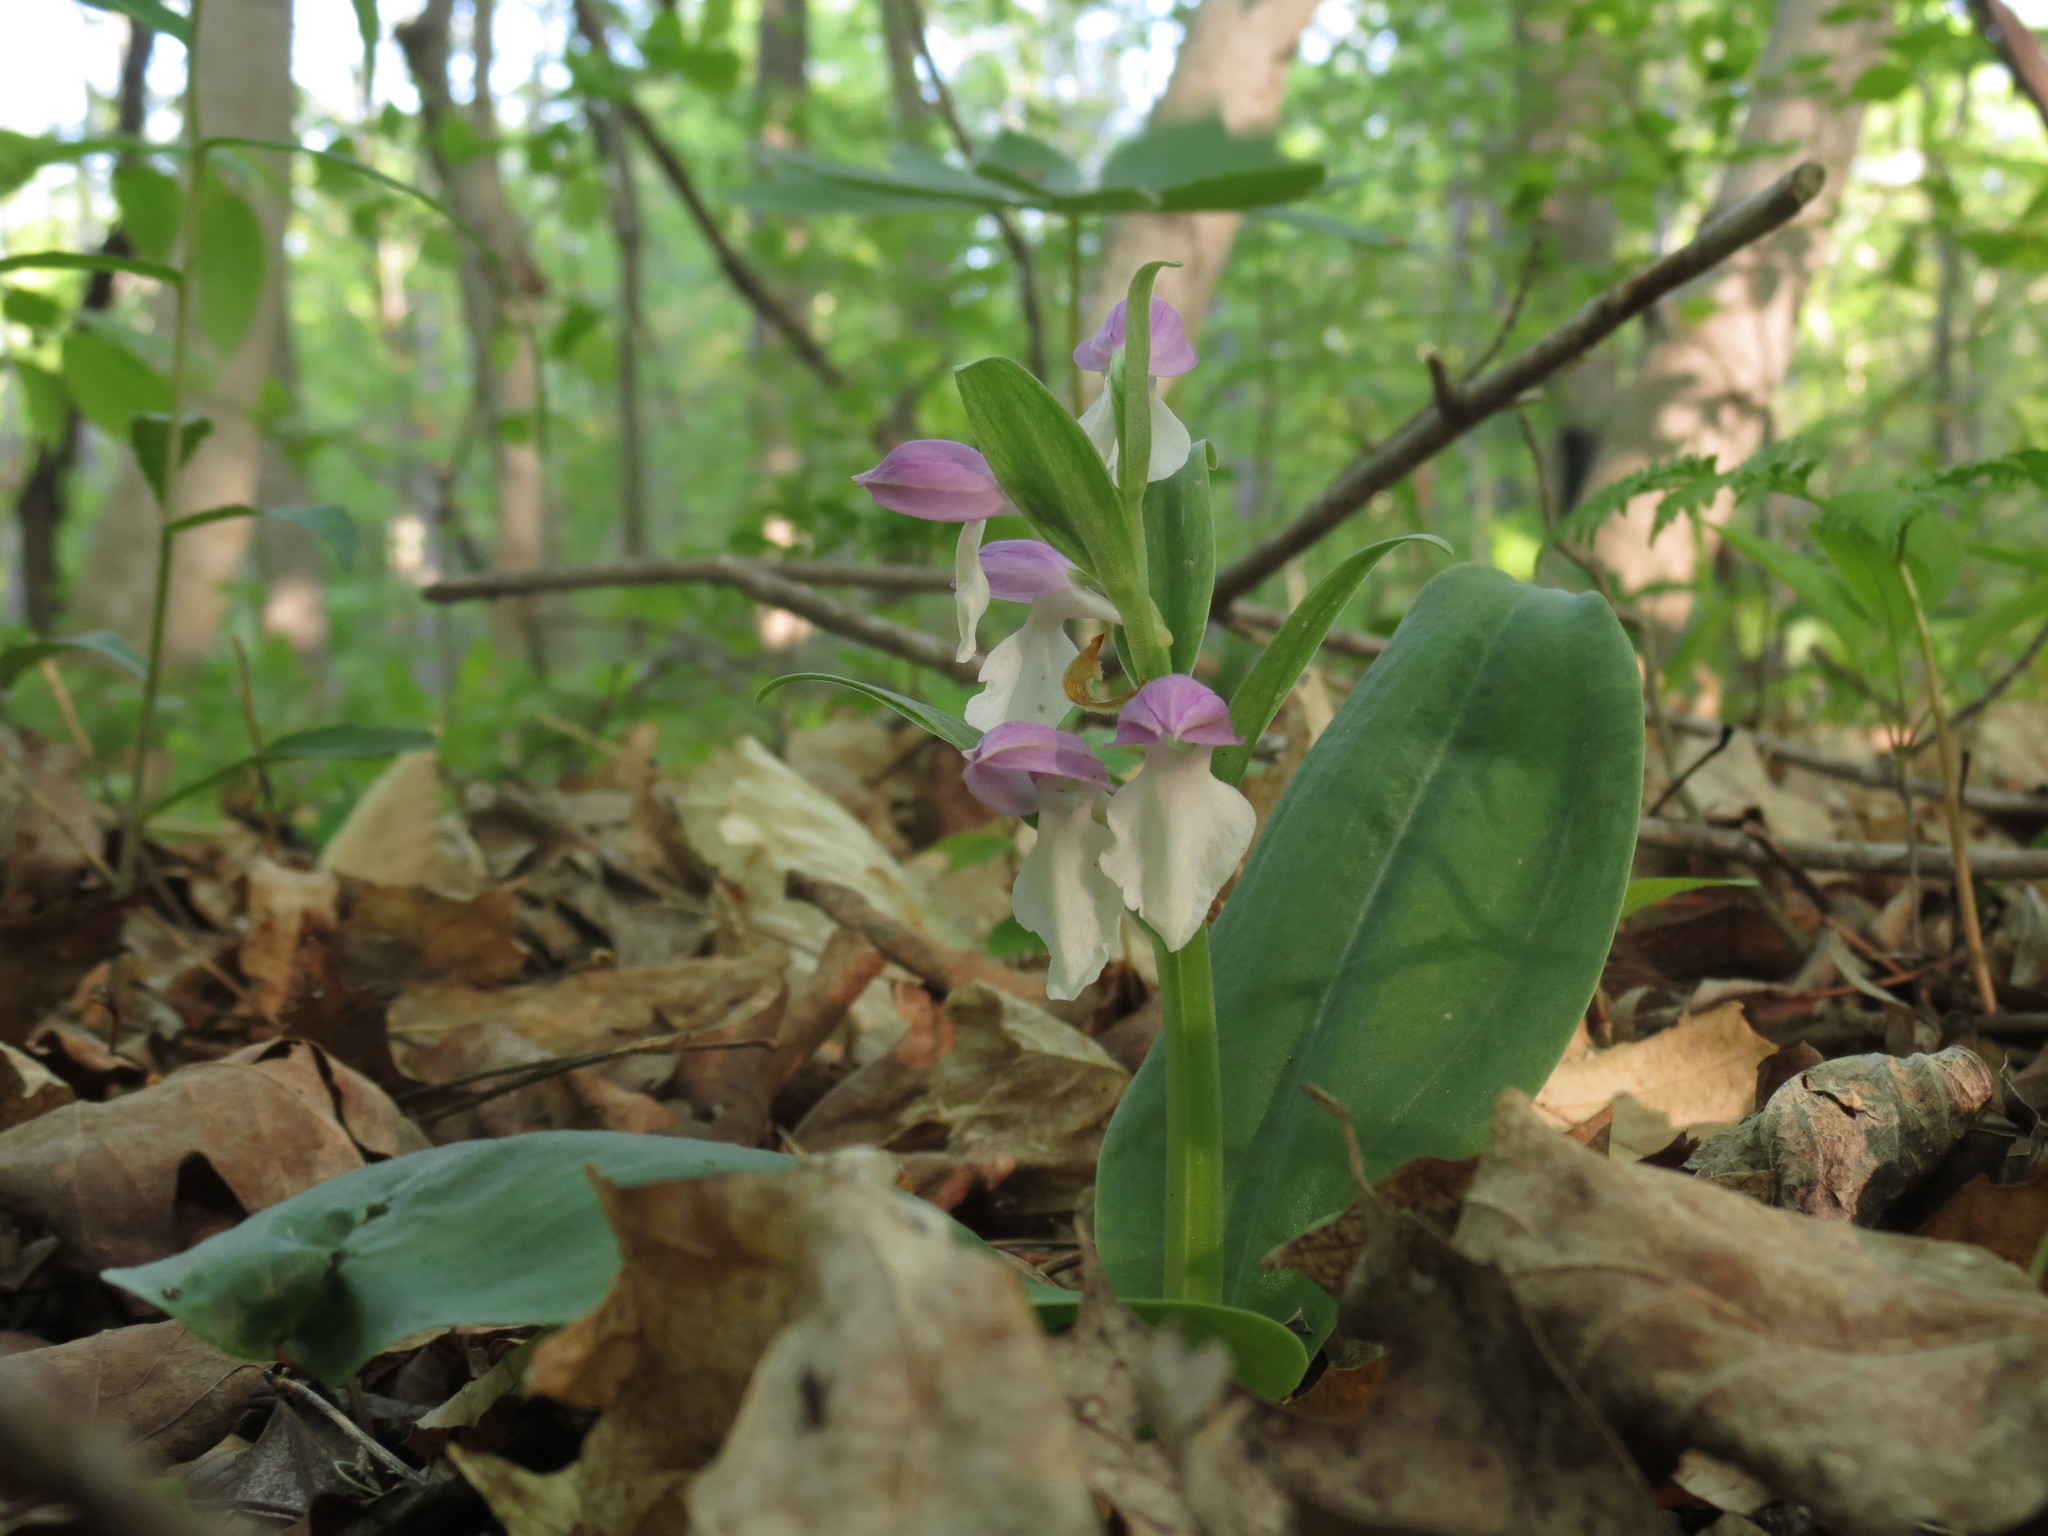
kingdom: Plantae
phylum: Tracheophyta
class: Liliopsida
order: Asparagales
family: Orchidaceae
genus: Galearis
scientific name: Galearis spectabilis
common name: Purple-hooded orchis
